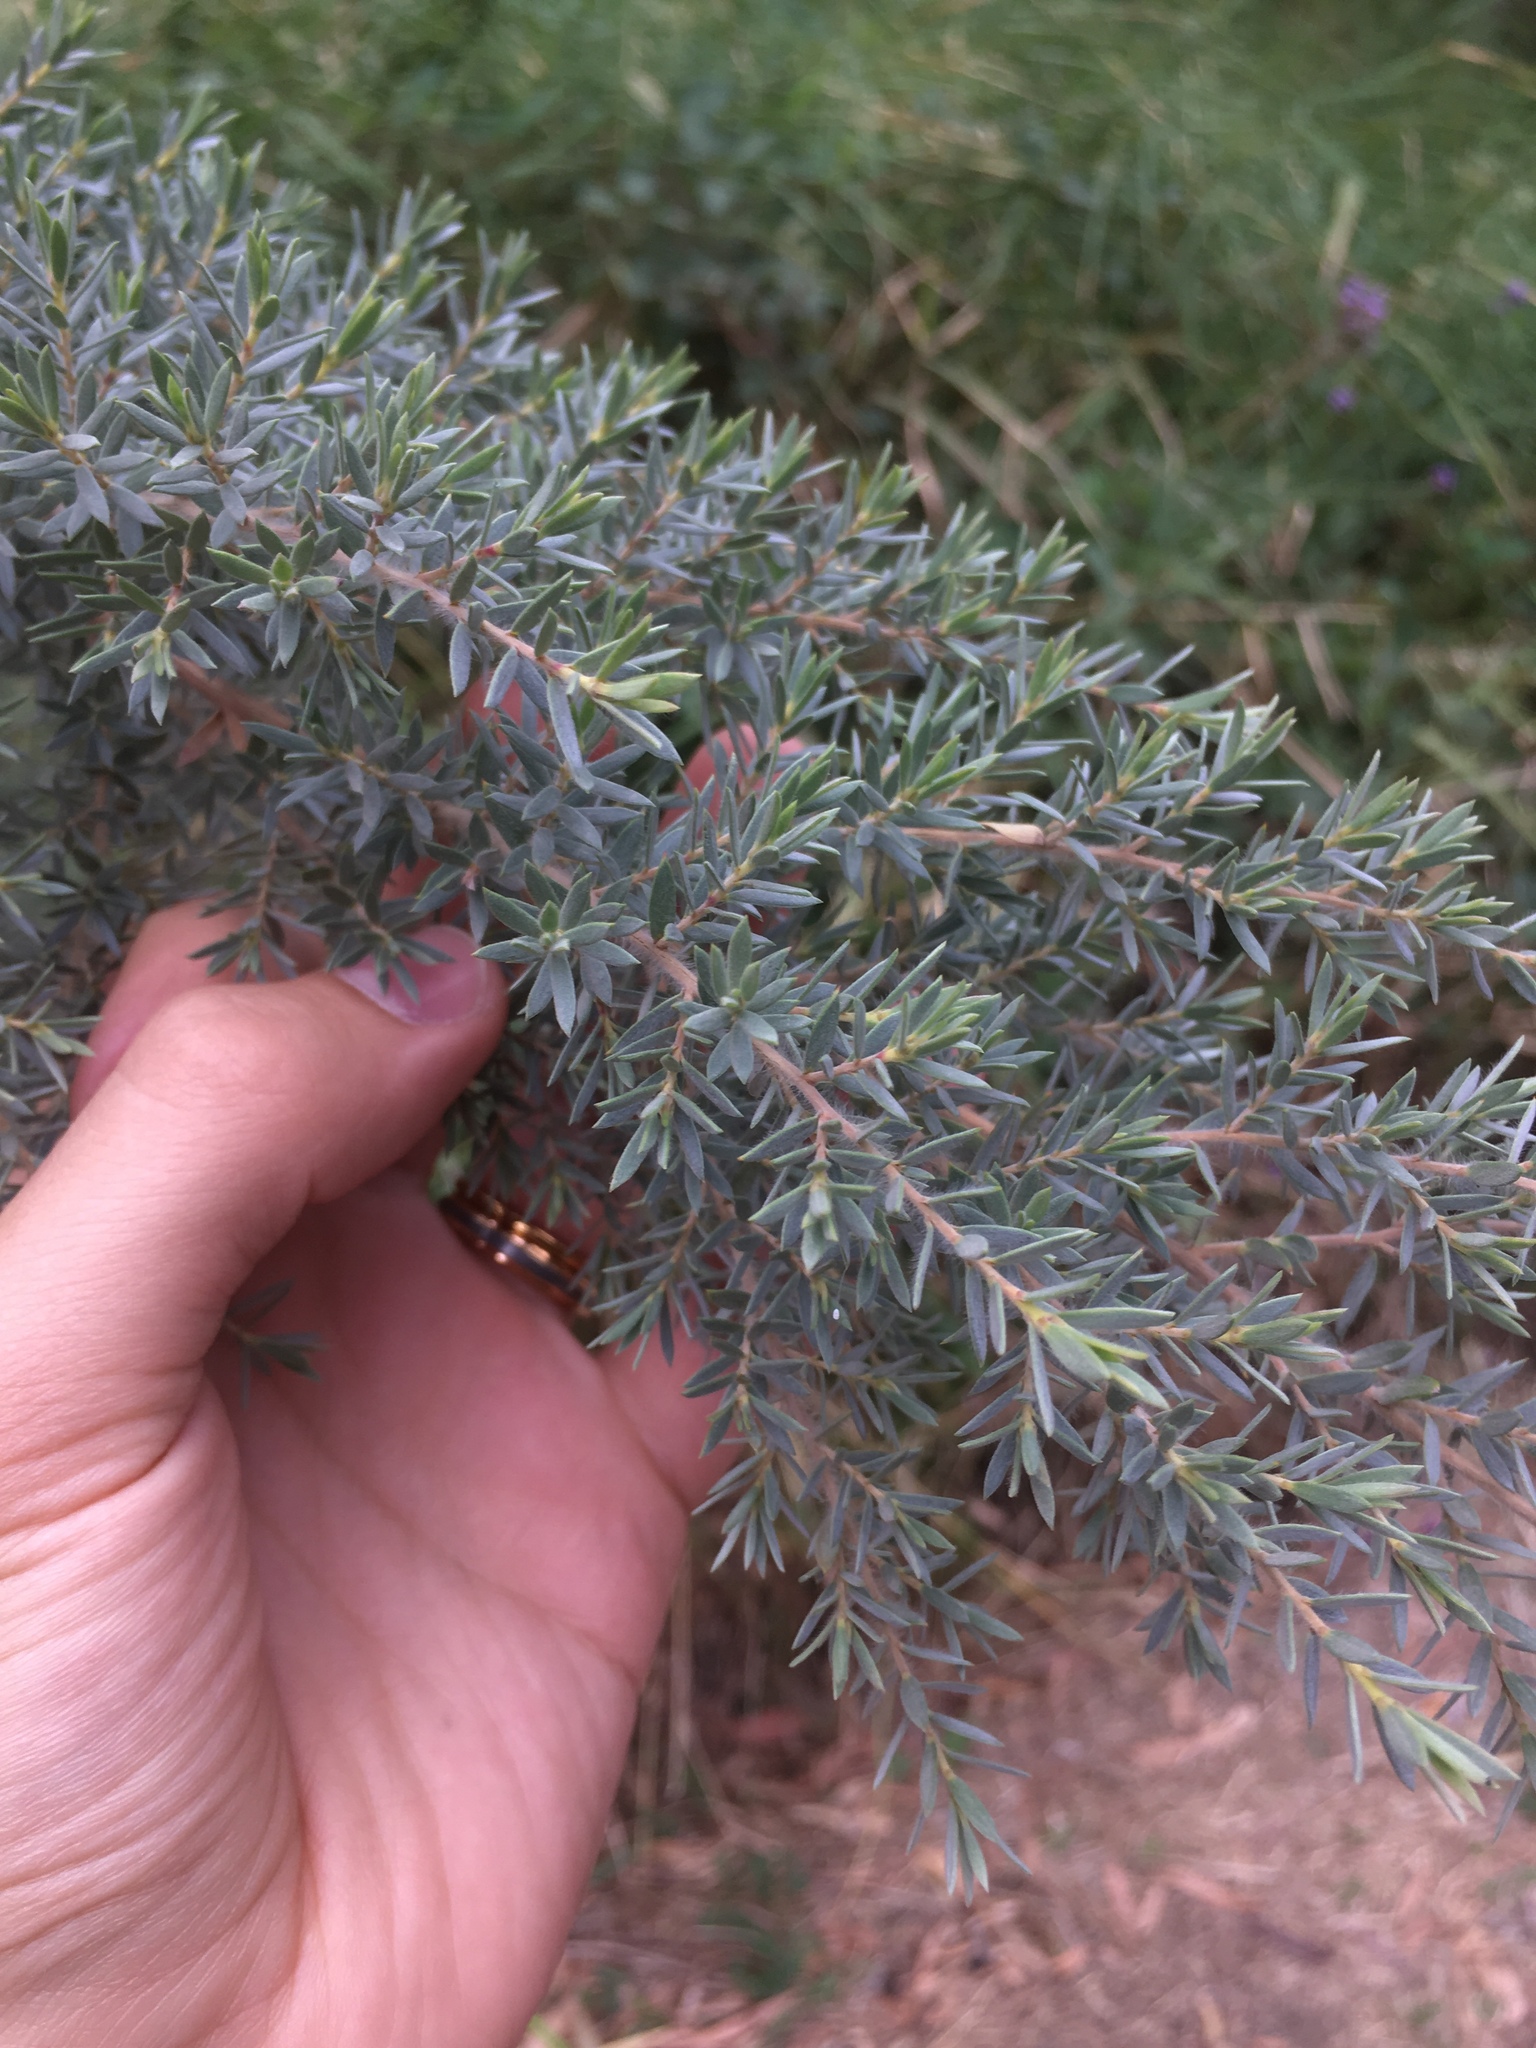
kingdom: Plantae
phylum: Tracheophyta
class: Magnoliopsida
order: Myrtales
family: Myrtaceae
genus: Leptospermum
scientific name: Leptospermum lanigerum
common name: Woolly tea-tree
